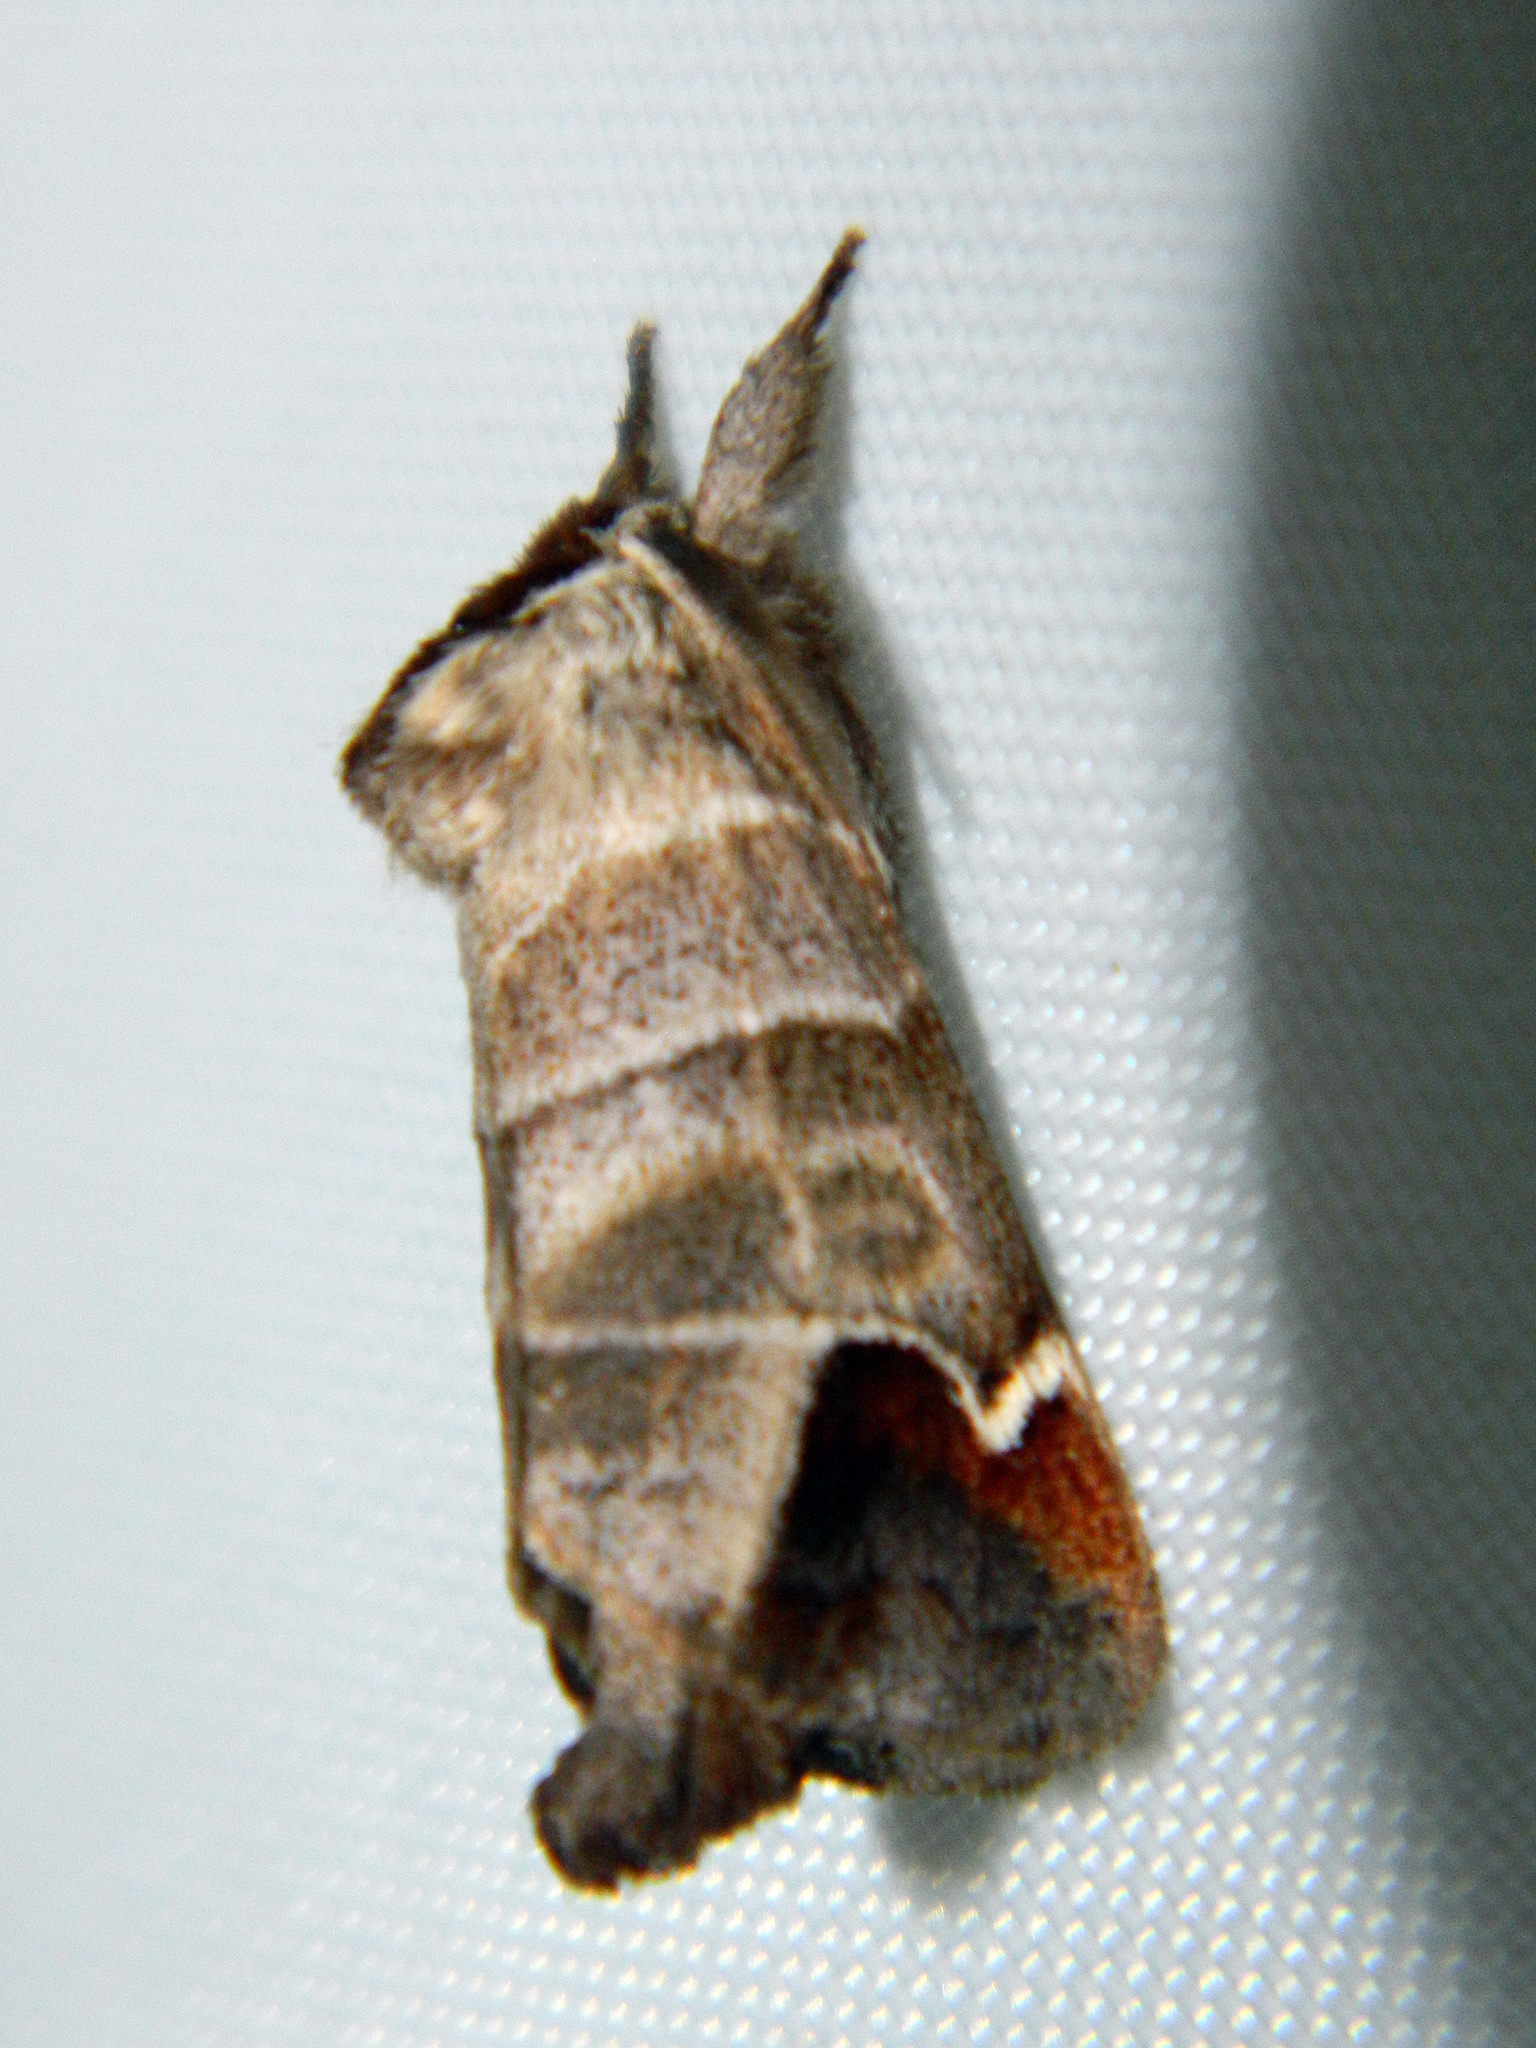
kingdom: Animalia
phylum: Arthropoda
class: Insecta
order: Lepidoptera
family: Notodontidae
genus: Clostera
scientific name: Clostera albosigma
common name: Sigmoid prominent
